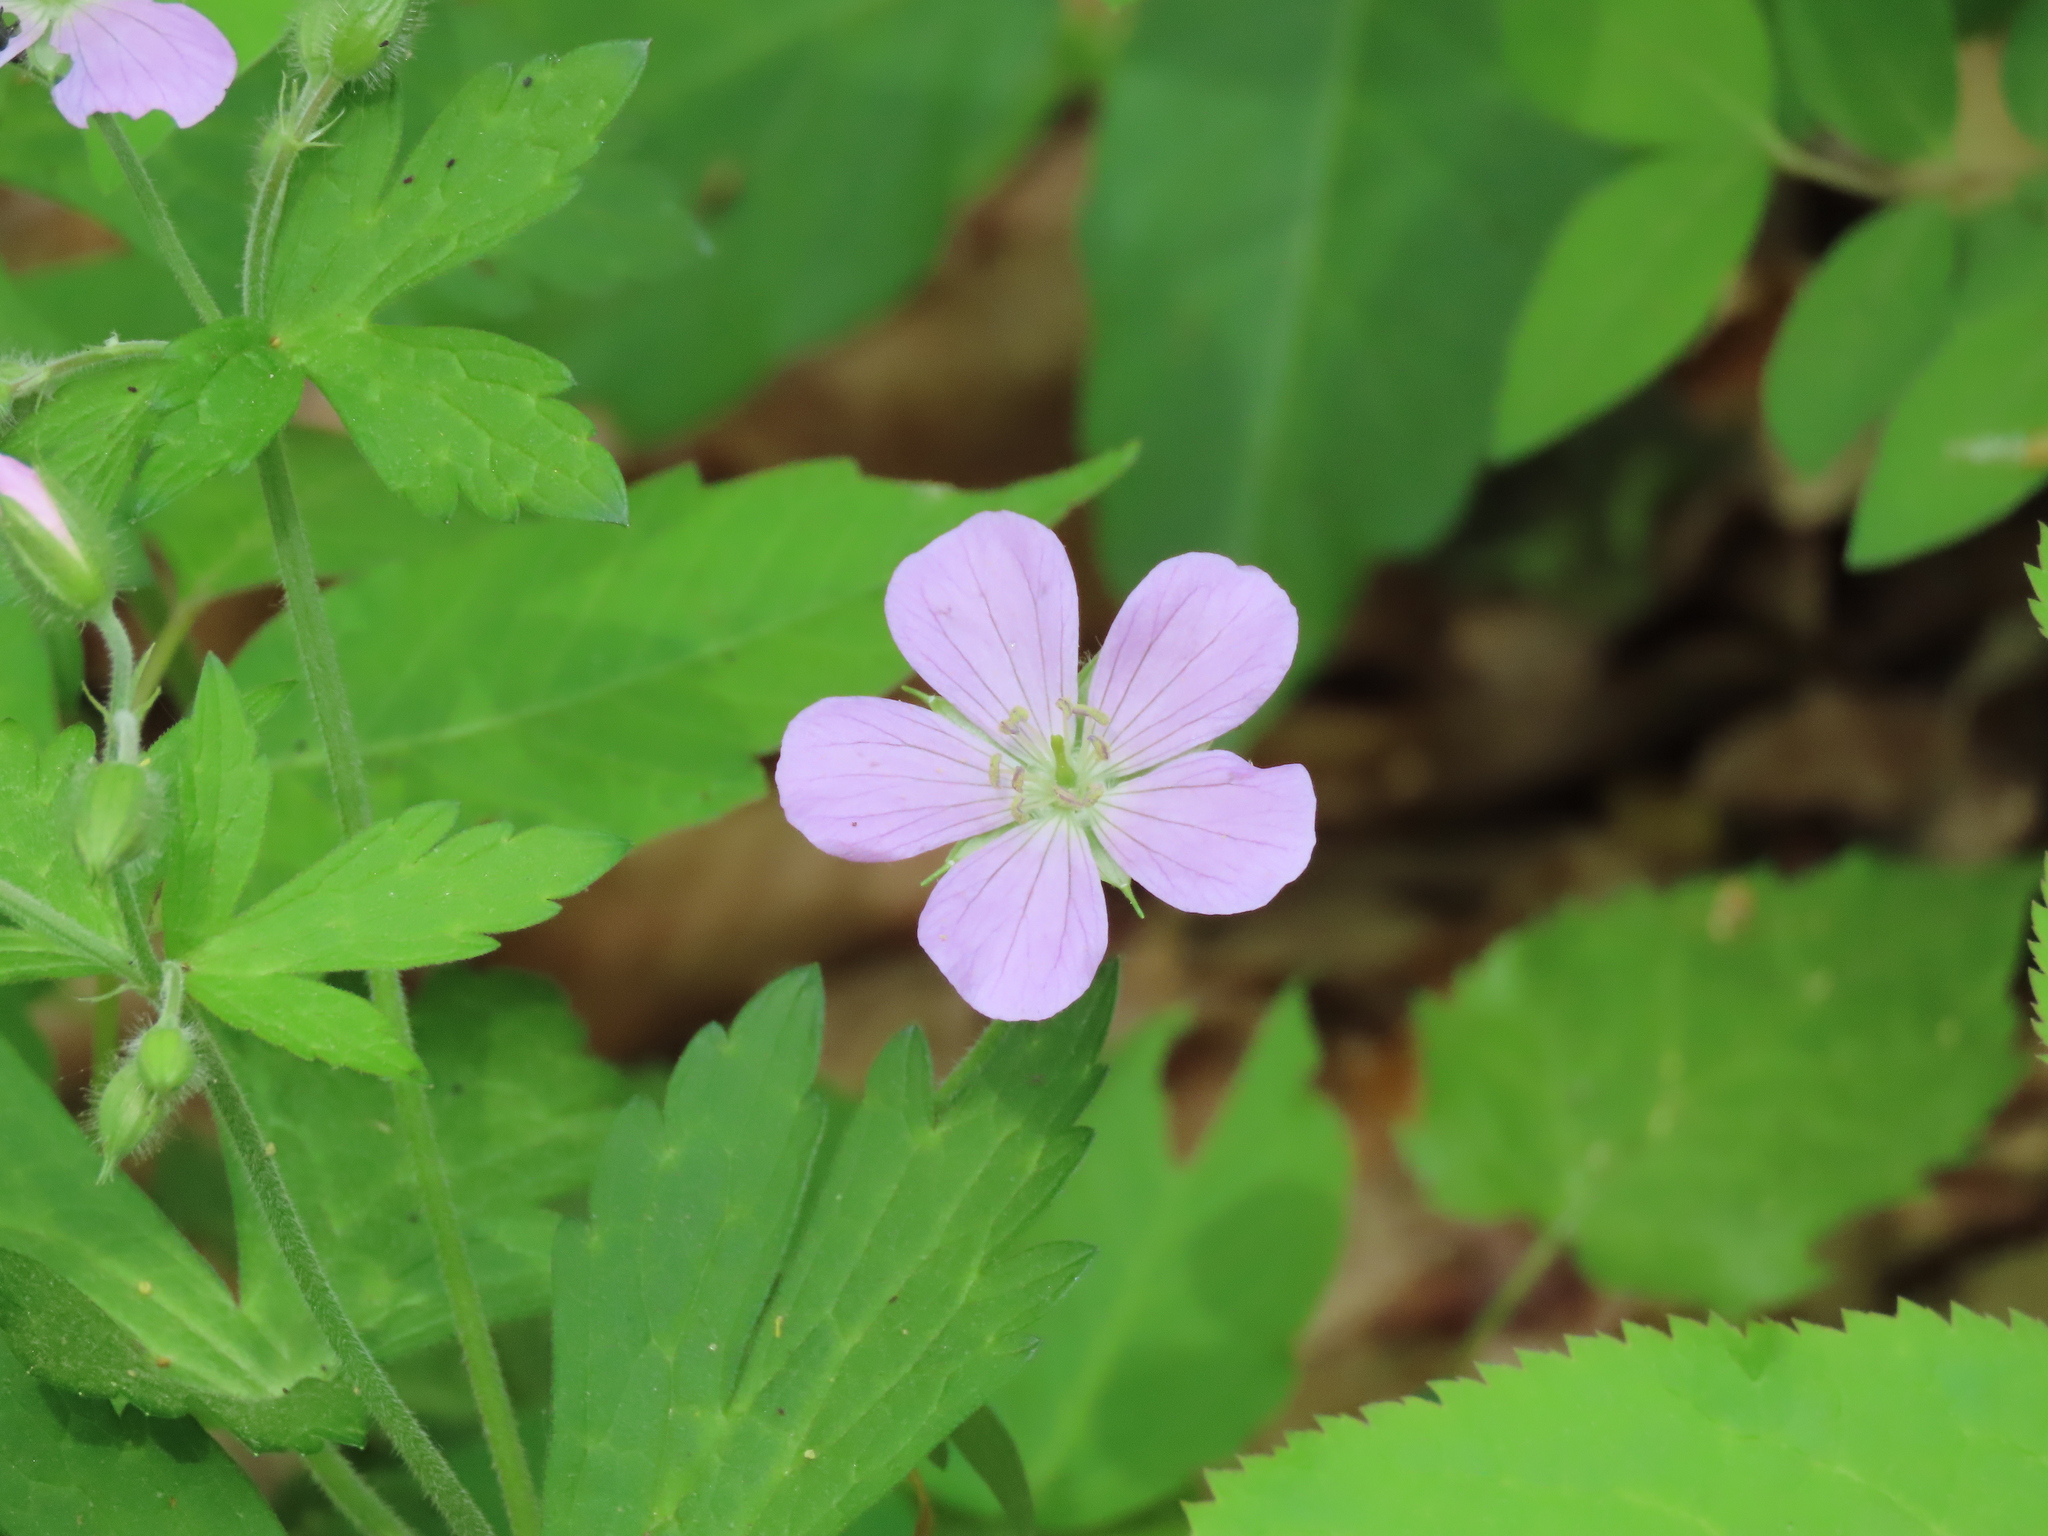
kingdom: Plantae
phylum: Tracheophyta
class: Magnoliopsida
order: Geraniales
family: Geraniaceae
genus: Geranium
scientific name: Geranium maculatum
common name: Spotted geranium
